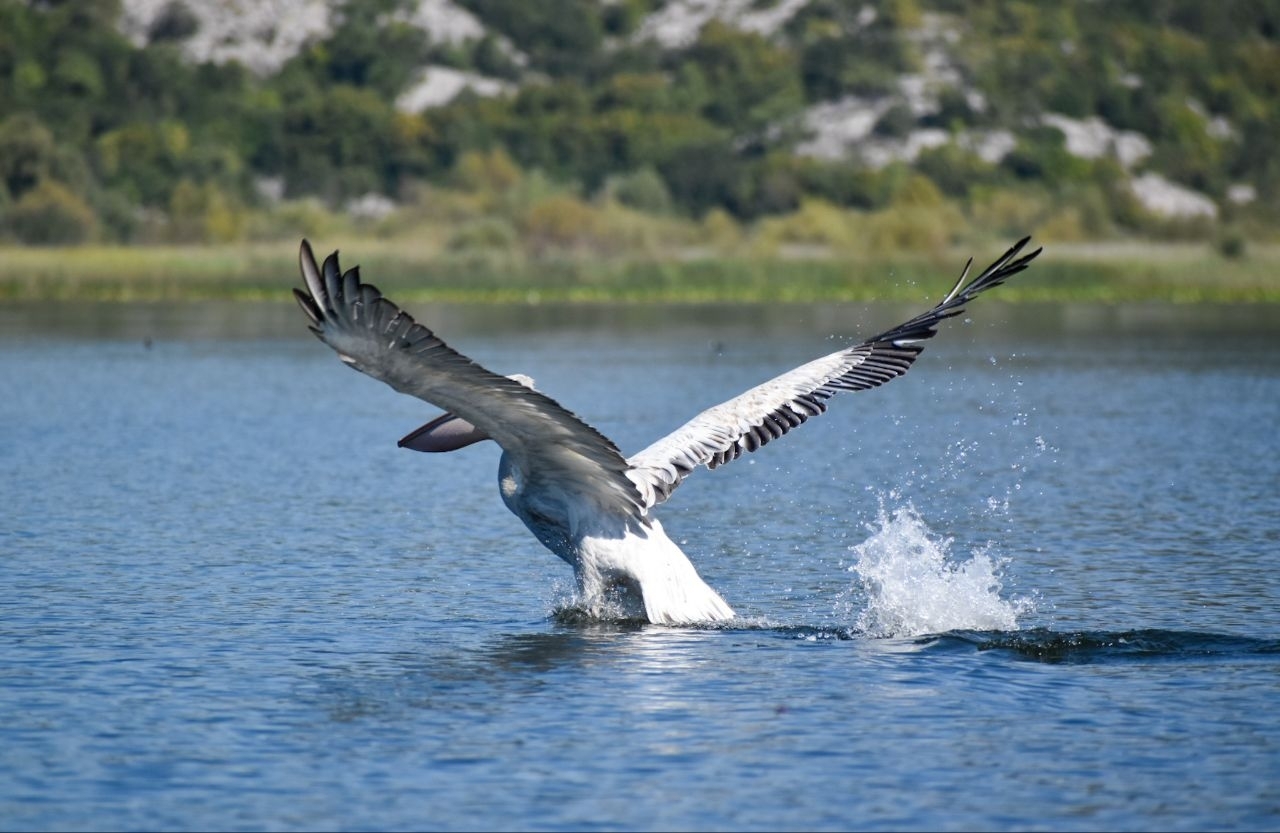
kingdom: Animalia
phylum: Chordata
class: Aves
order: Pelecaniformes
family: Pelecanidae
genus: Pelecanus
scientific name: Pelecanus crispus
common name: Dalmatian pelican
